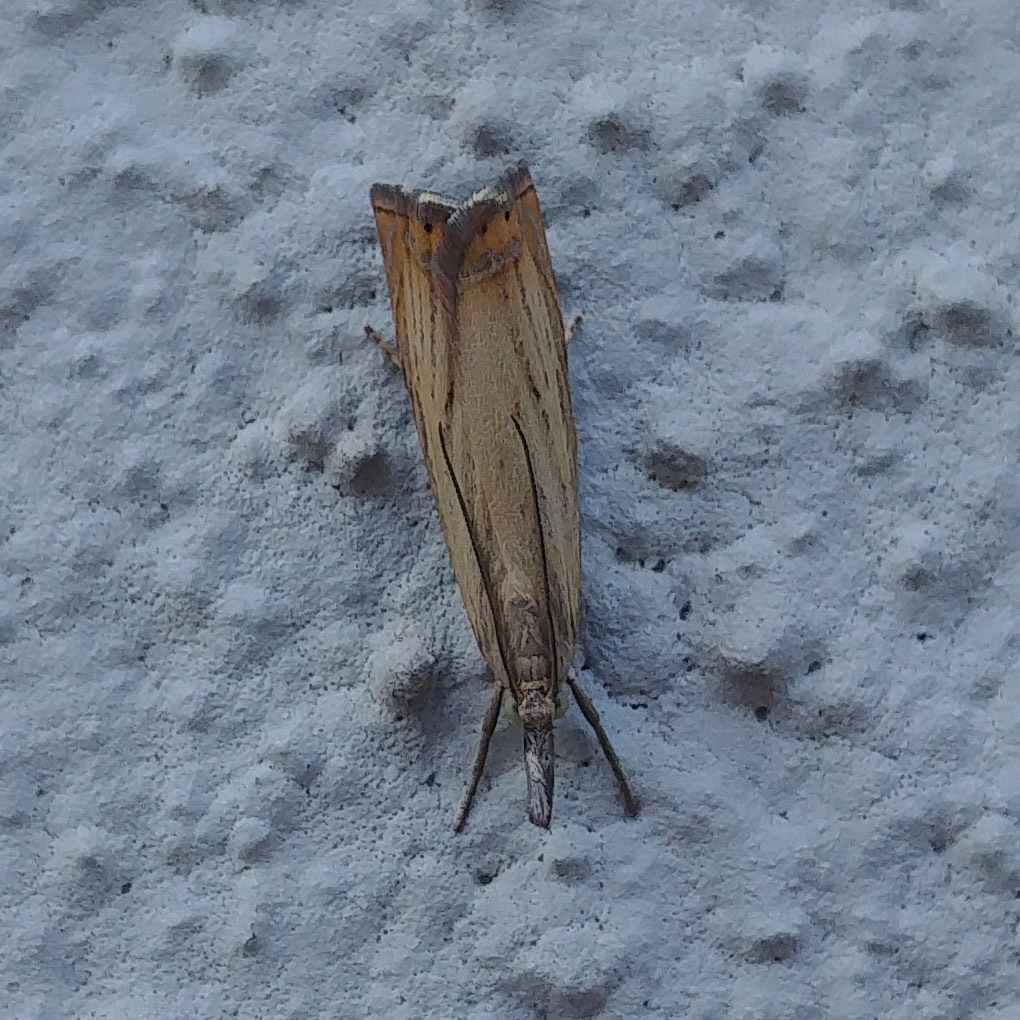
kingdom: Animalia
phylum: Arthropoda
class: Insecta
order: Lepidoptera
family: Crambidae
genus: Chrysoteuchia
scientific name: Chrysoteuchia culmella
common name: Garden grass-veneer
